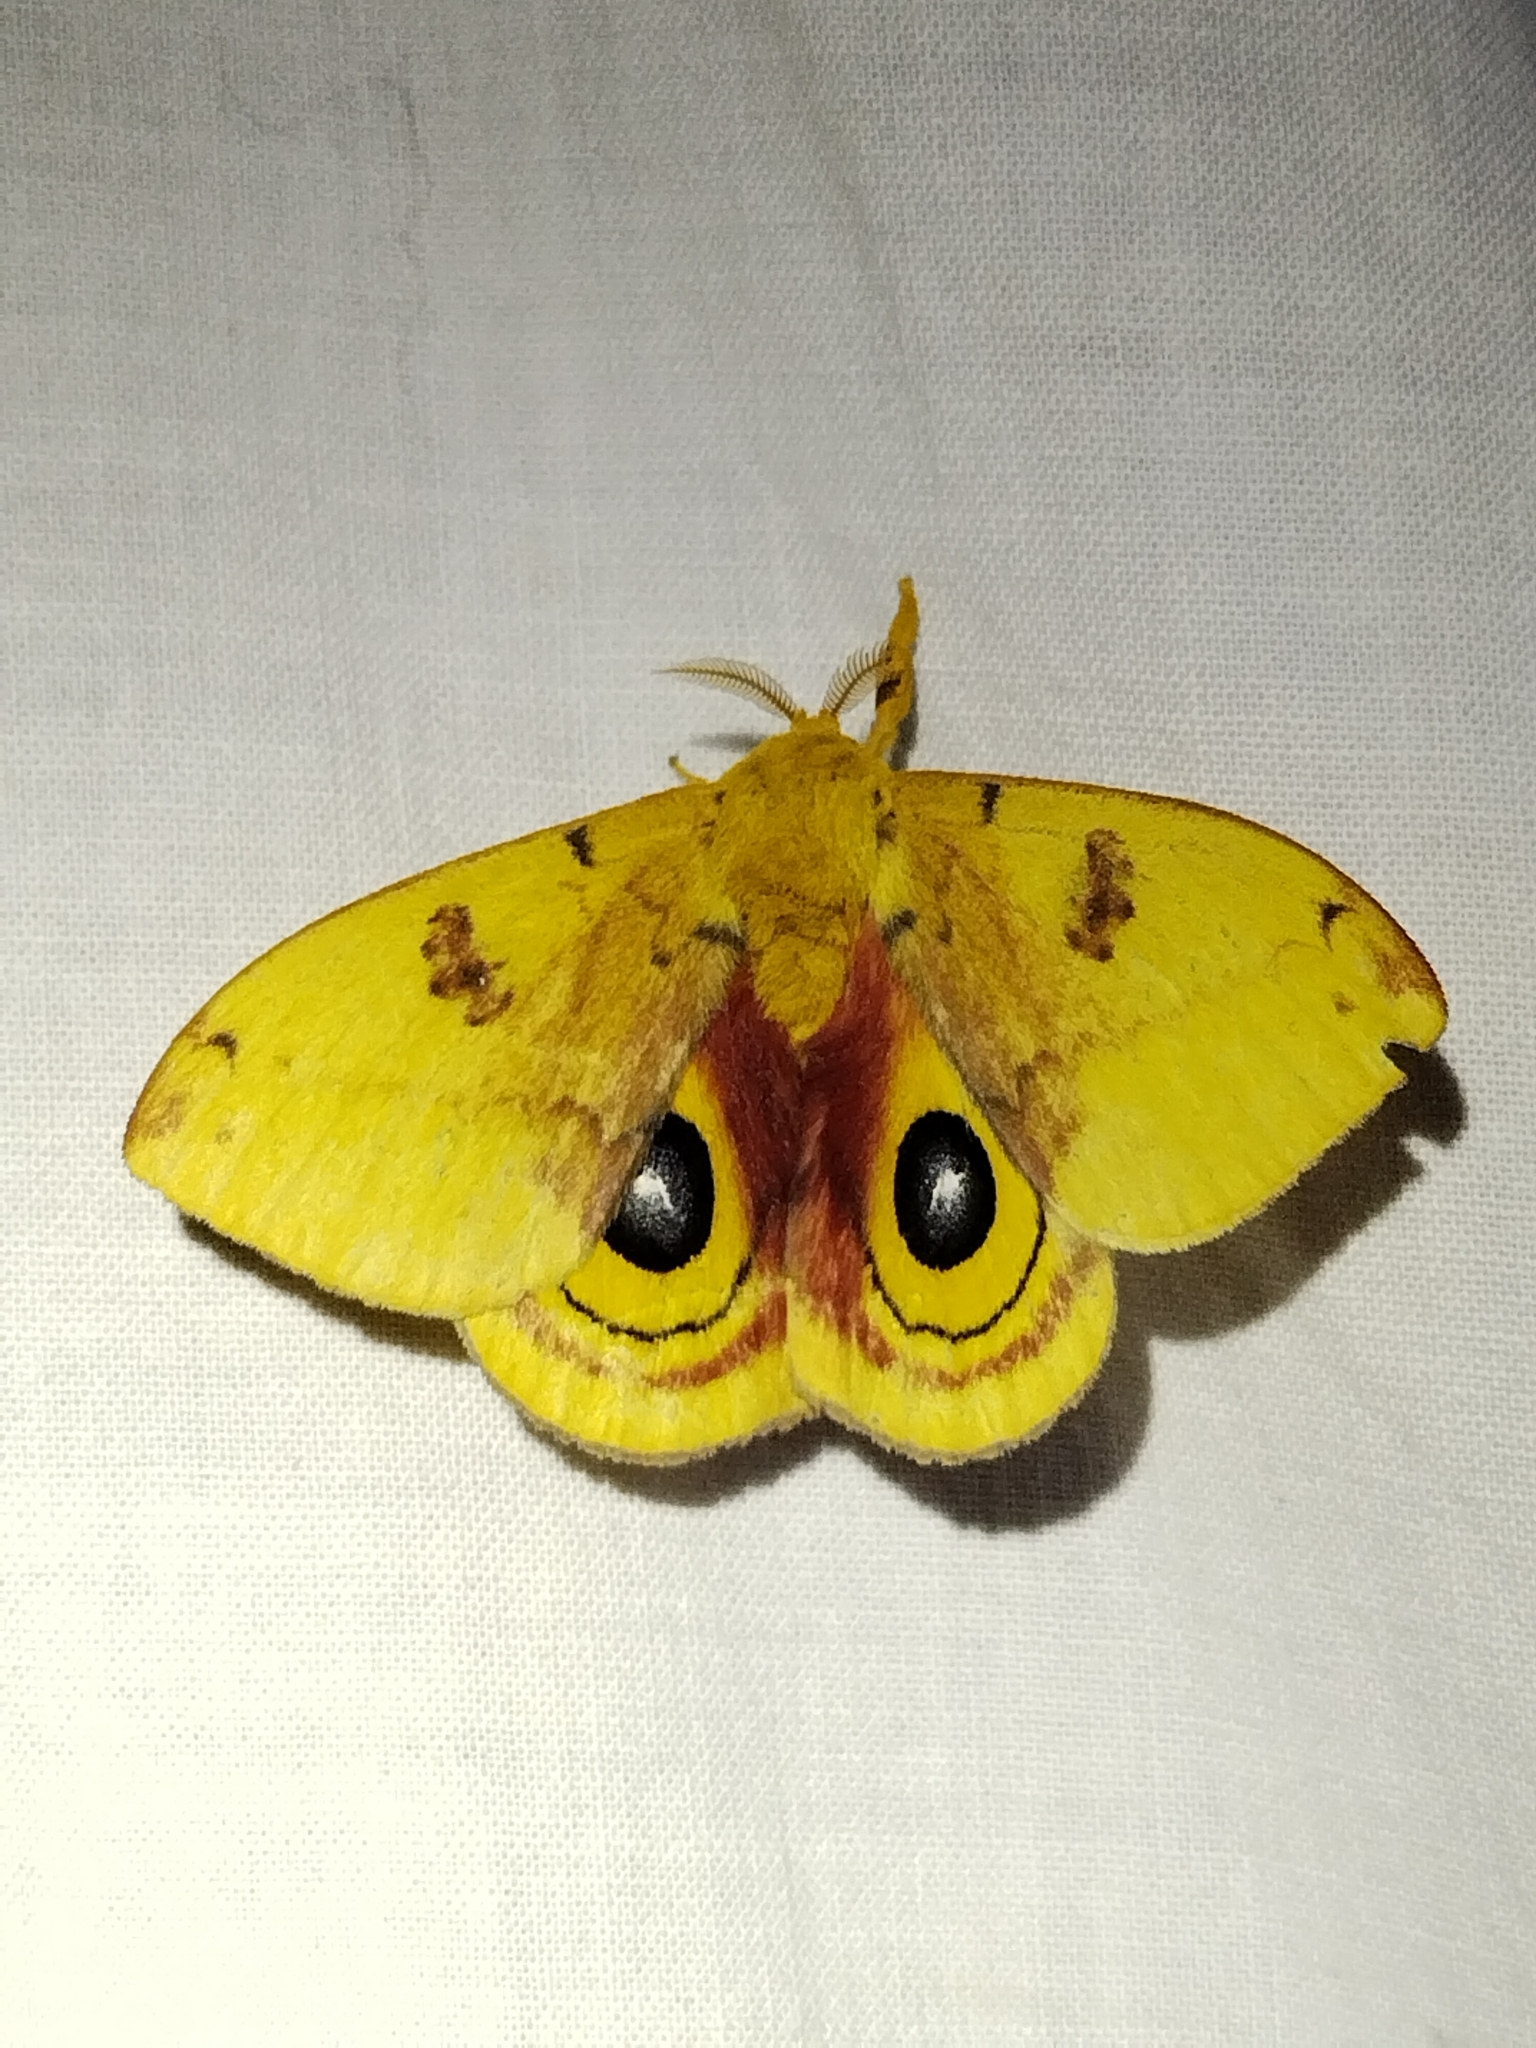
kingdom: Animalia
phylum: Arthropoda
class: Insecta
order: Lepidoptera
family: Saturniidae
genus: Automeris
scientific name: Automeris io
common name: Io moth
